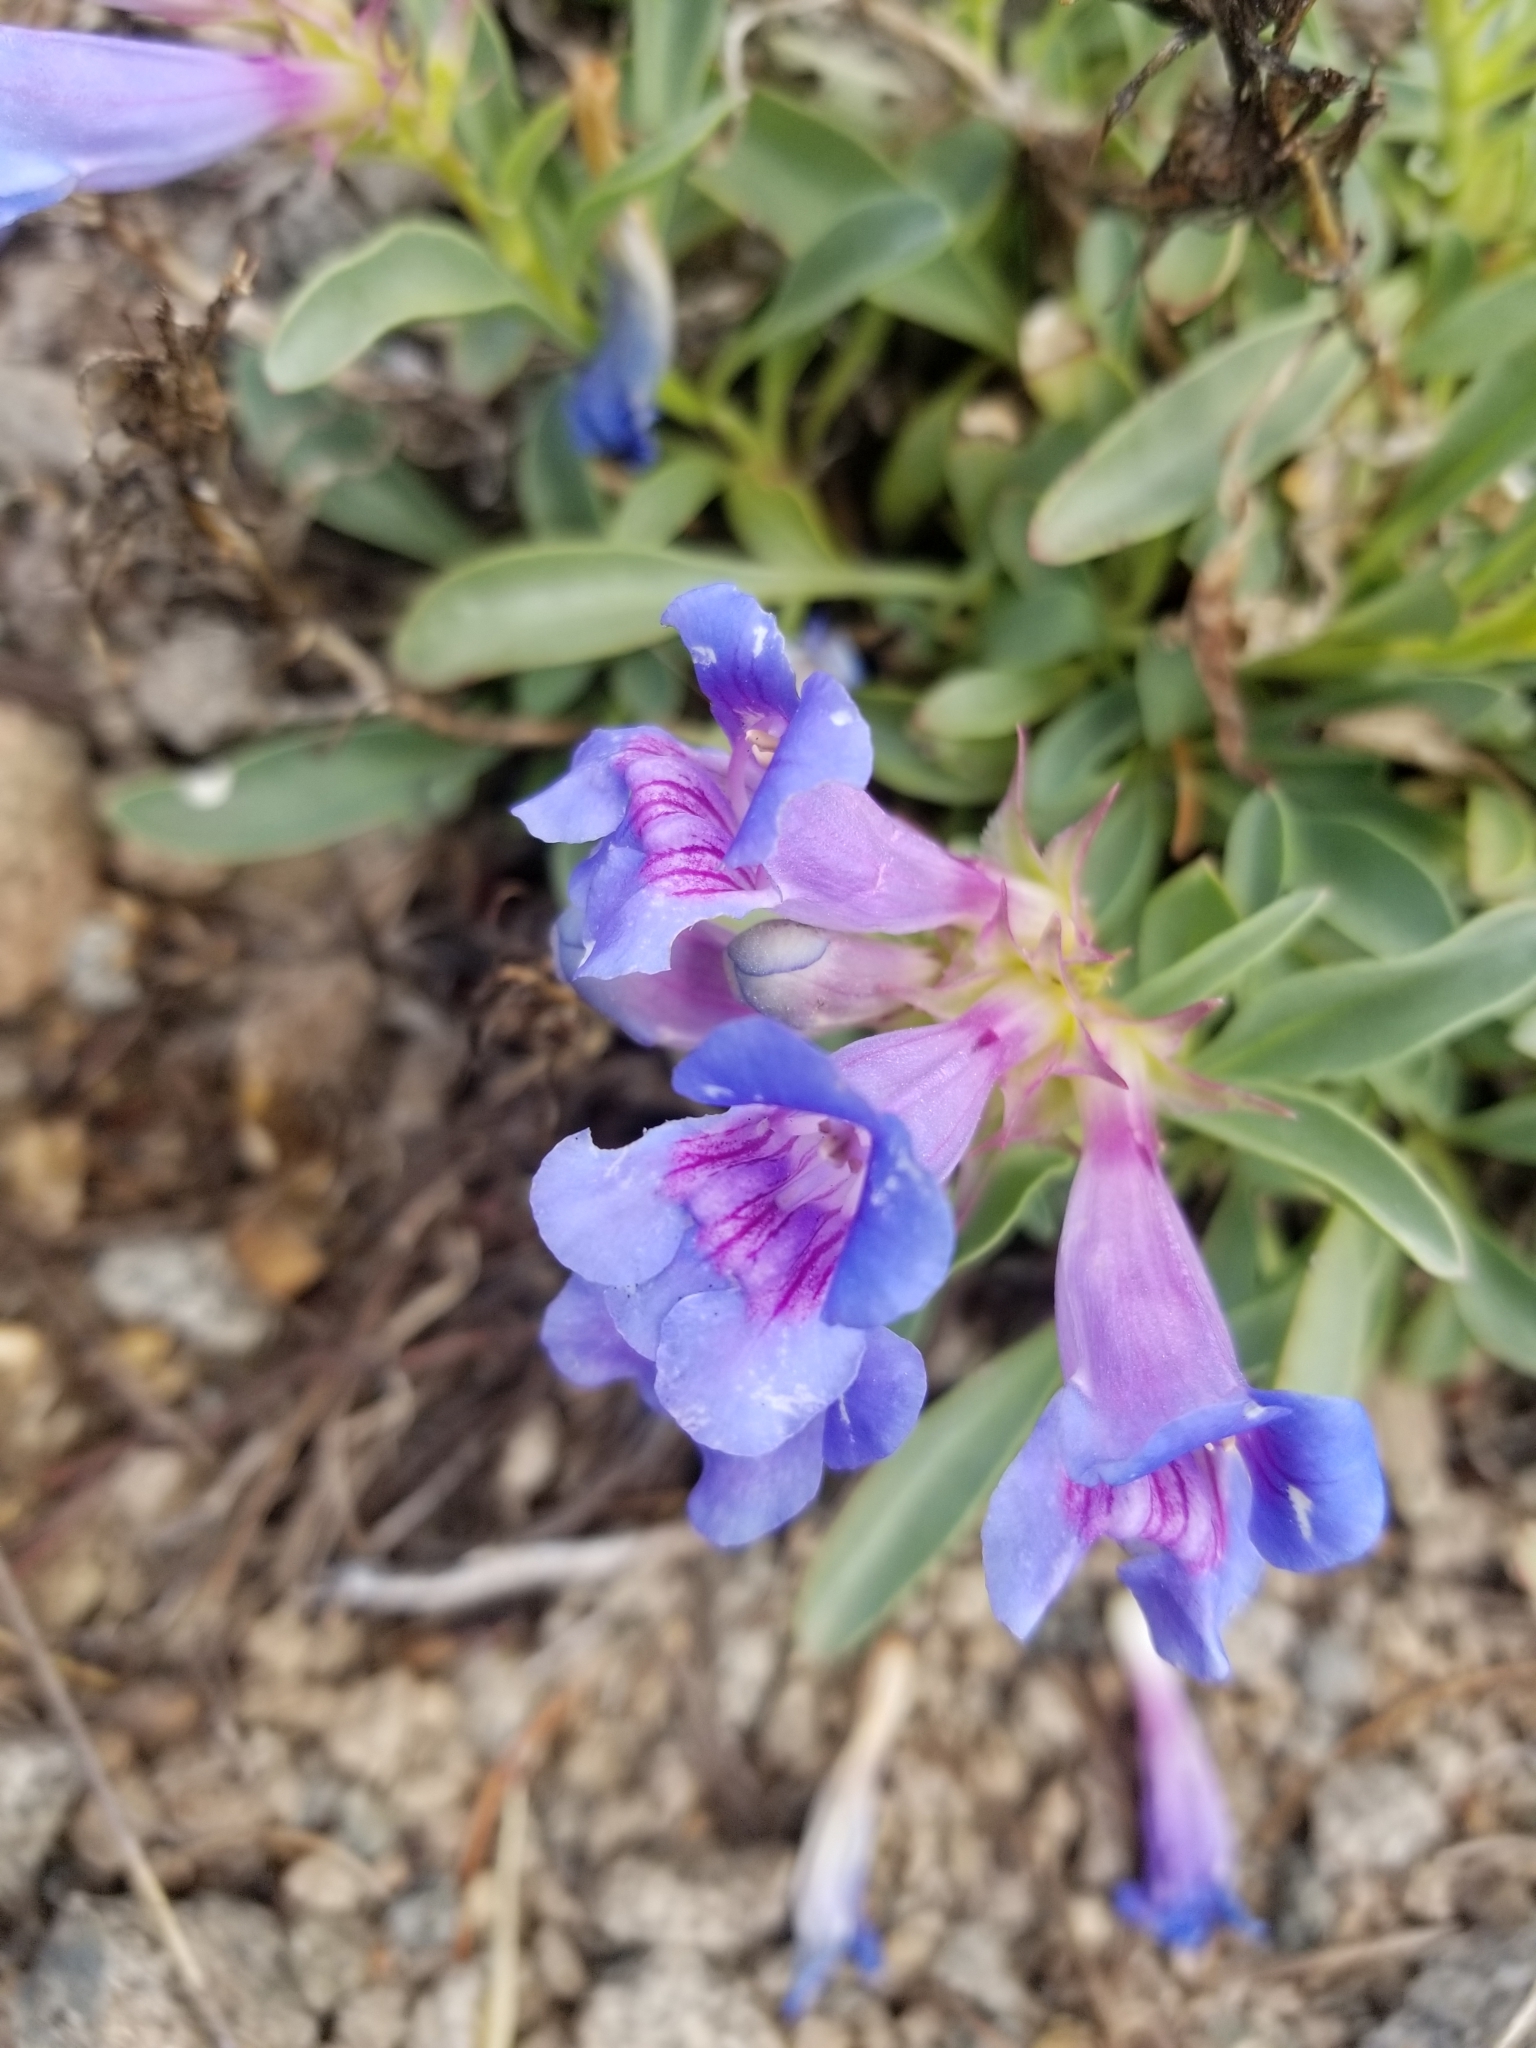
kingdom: Plantae
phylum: Tracheophyta
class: Magnoliopsida
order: Lamiales
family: Plantaginaceae
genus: Penstemon
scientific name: Penstemon speciosus
